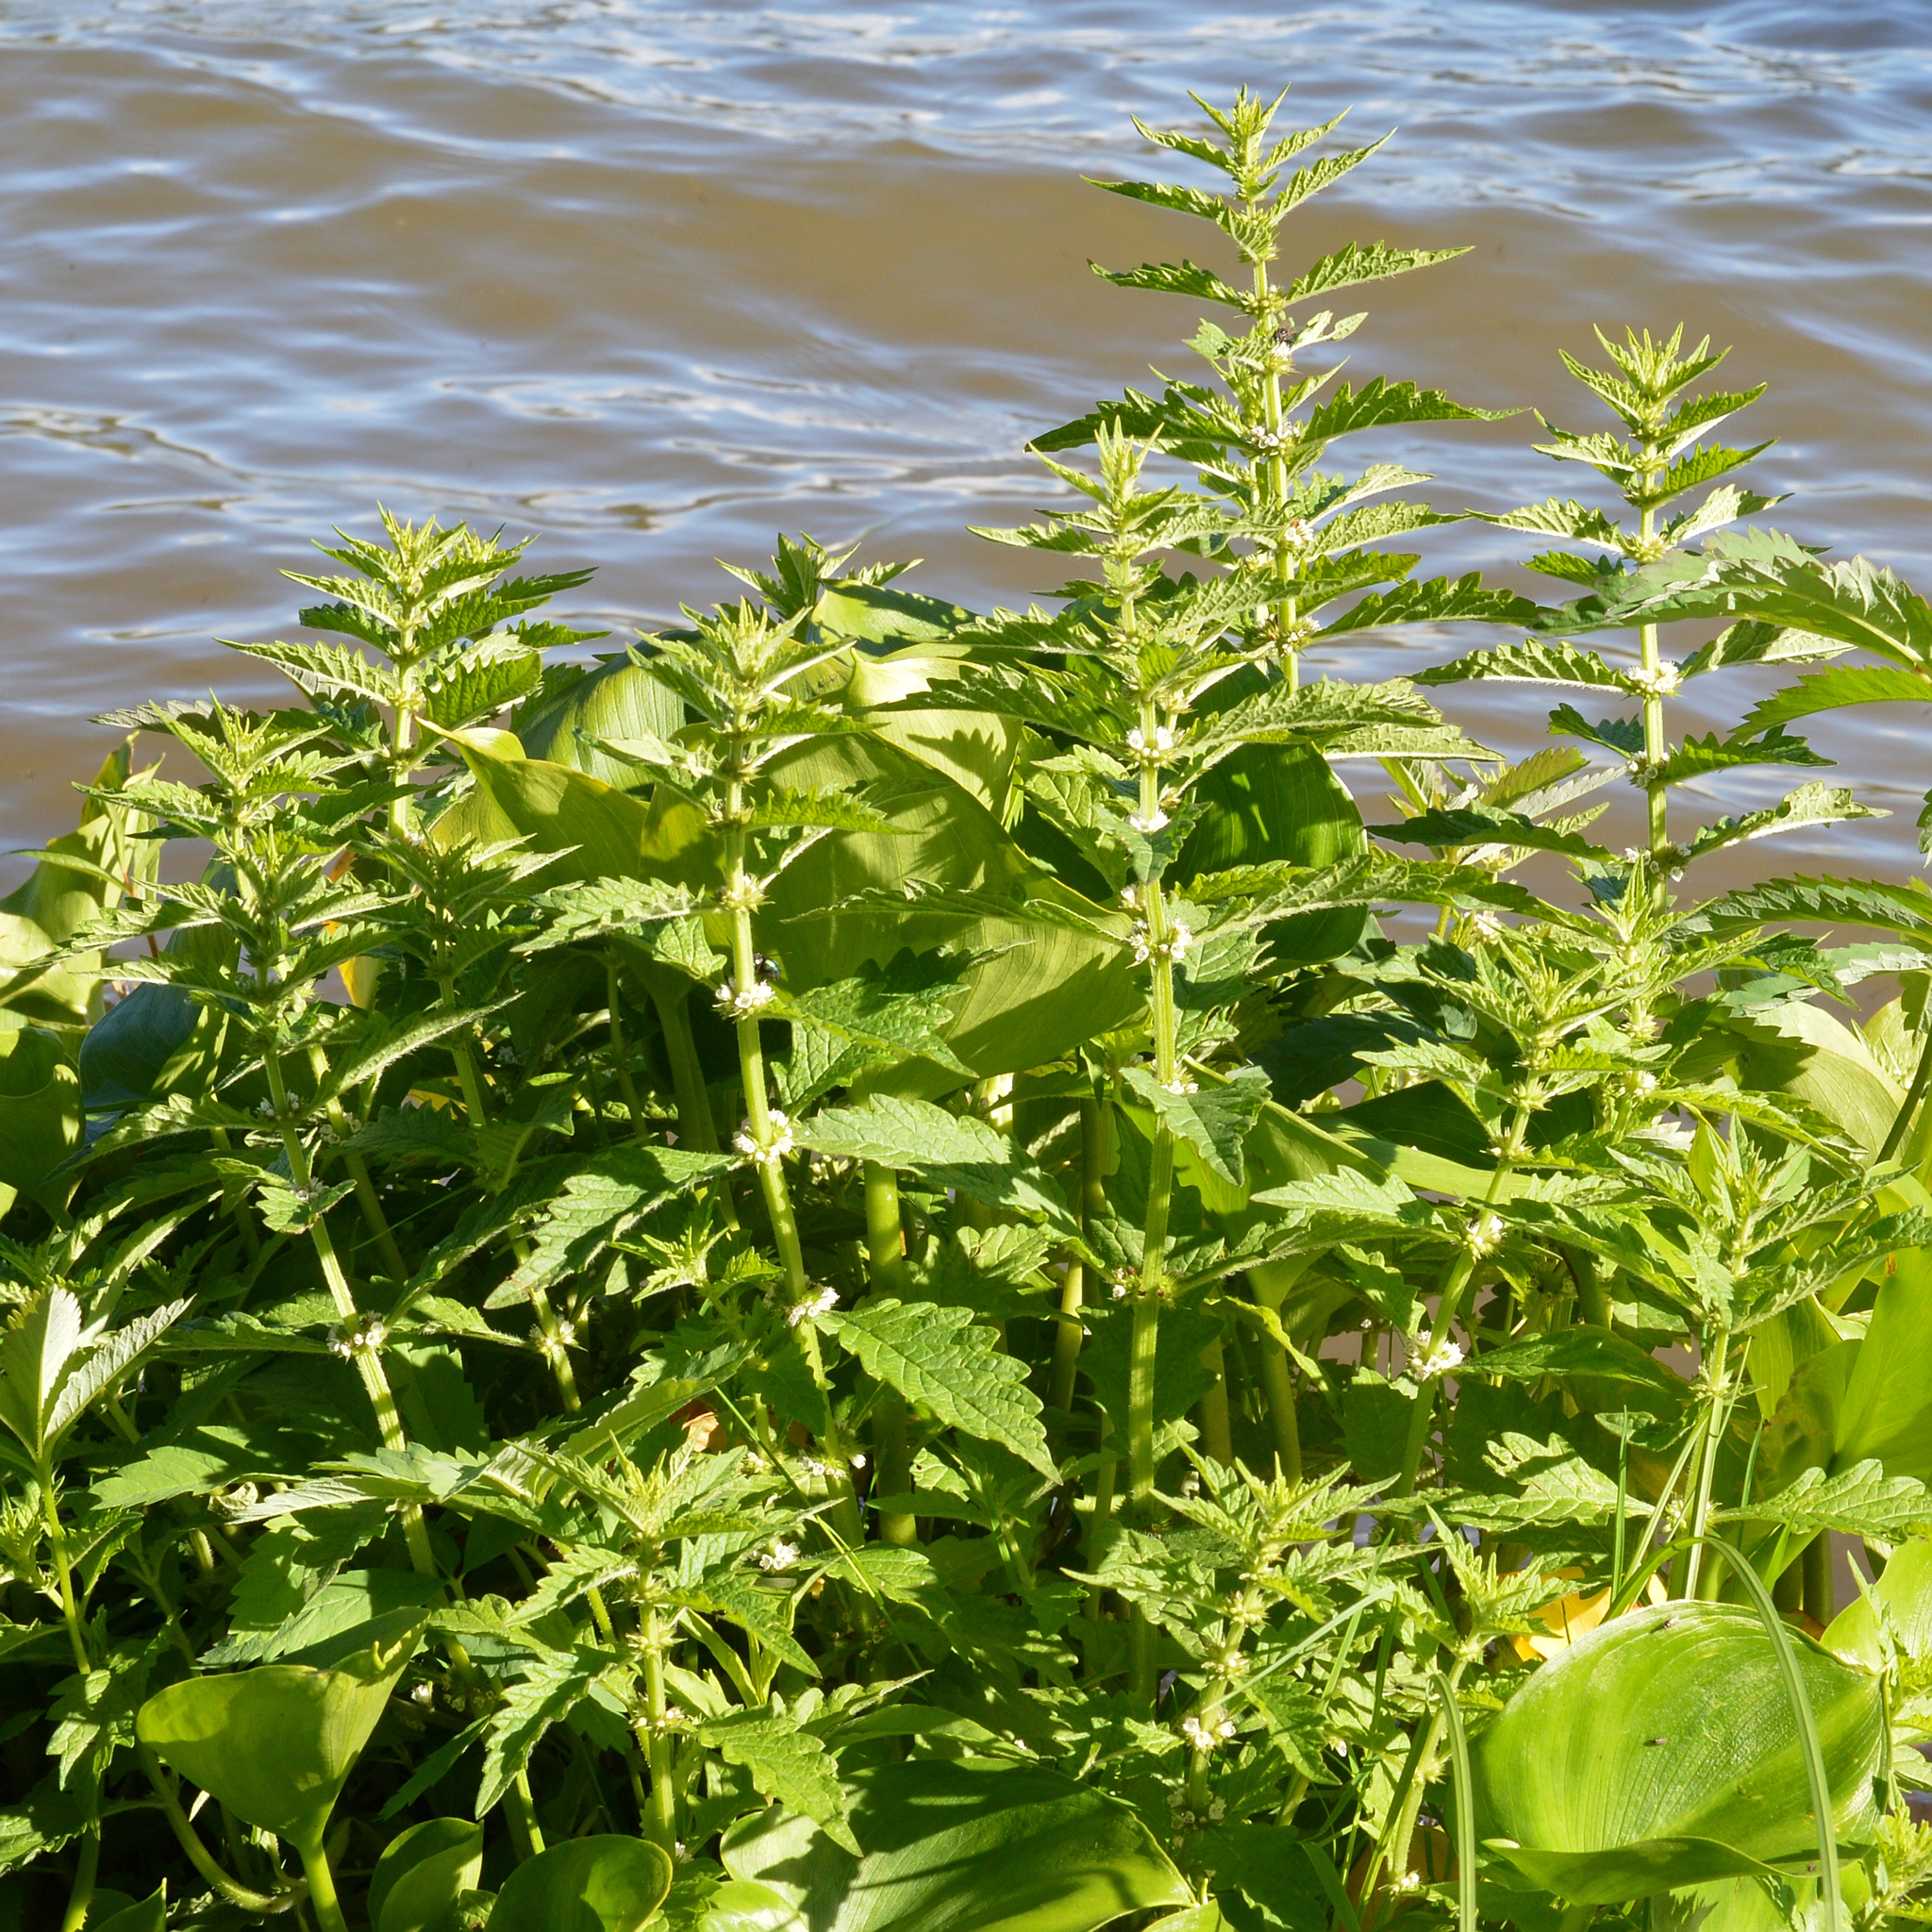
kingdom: Plantae
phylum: Tracheophyta
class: Magnoliopsida
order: Lamiales
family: Lamiaceae
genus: Lycopus
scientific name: Lycopus europaeus
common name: European bugleweed
